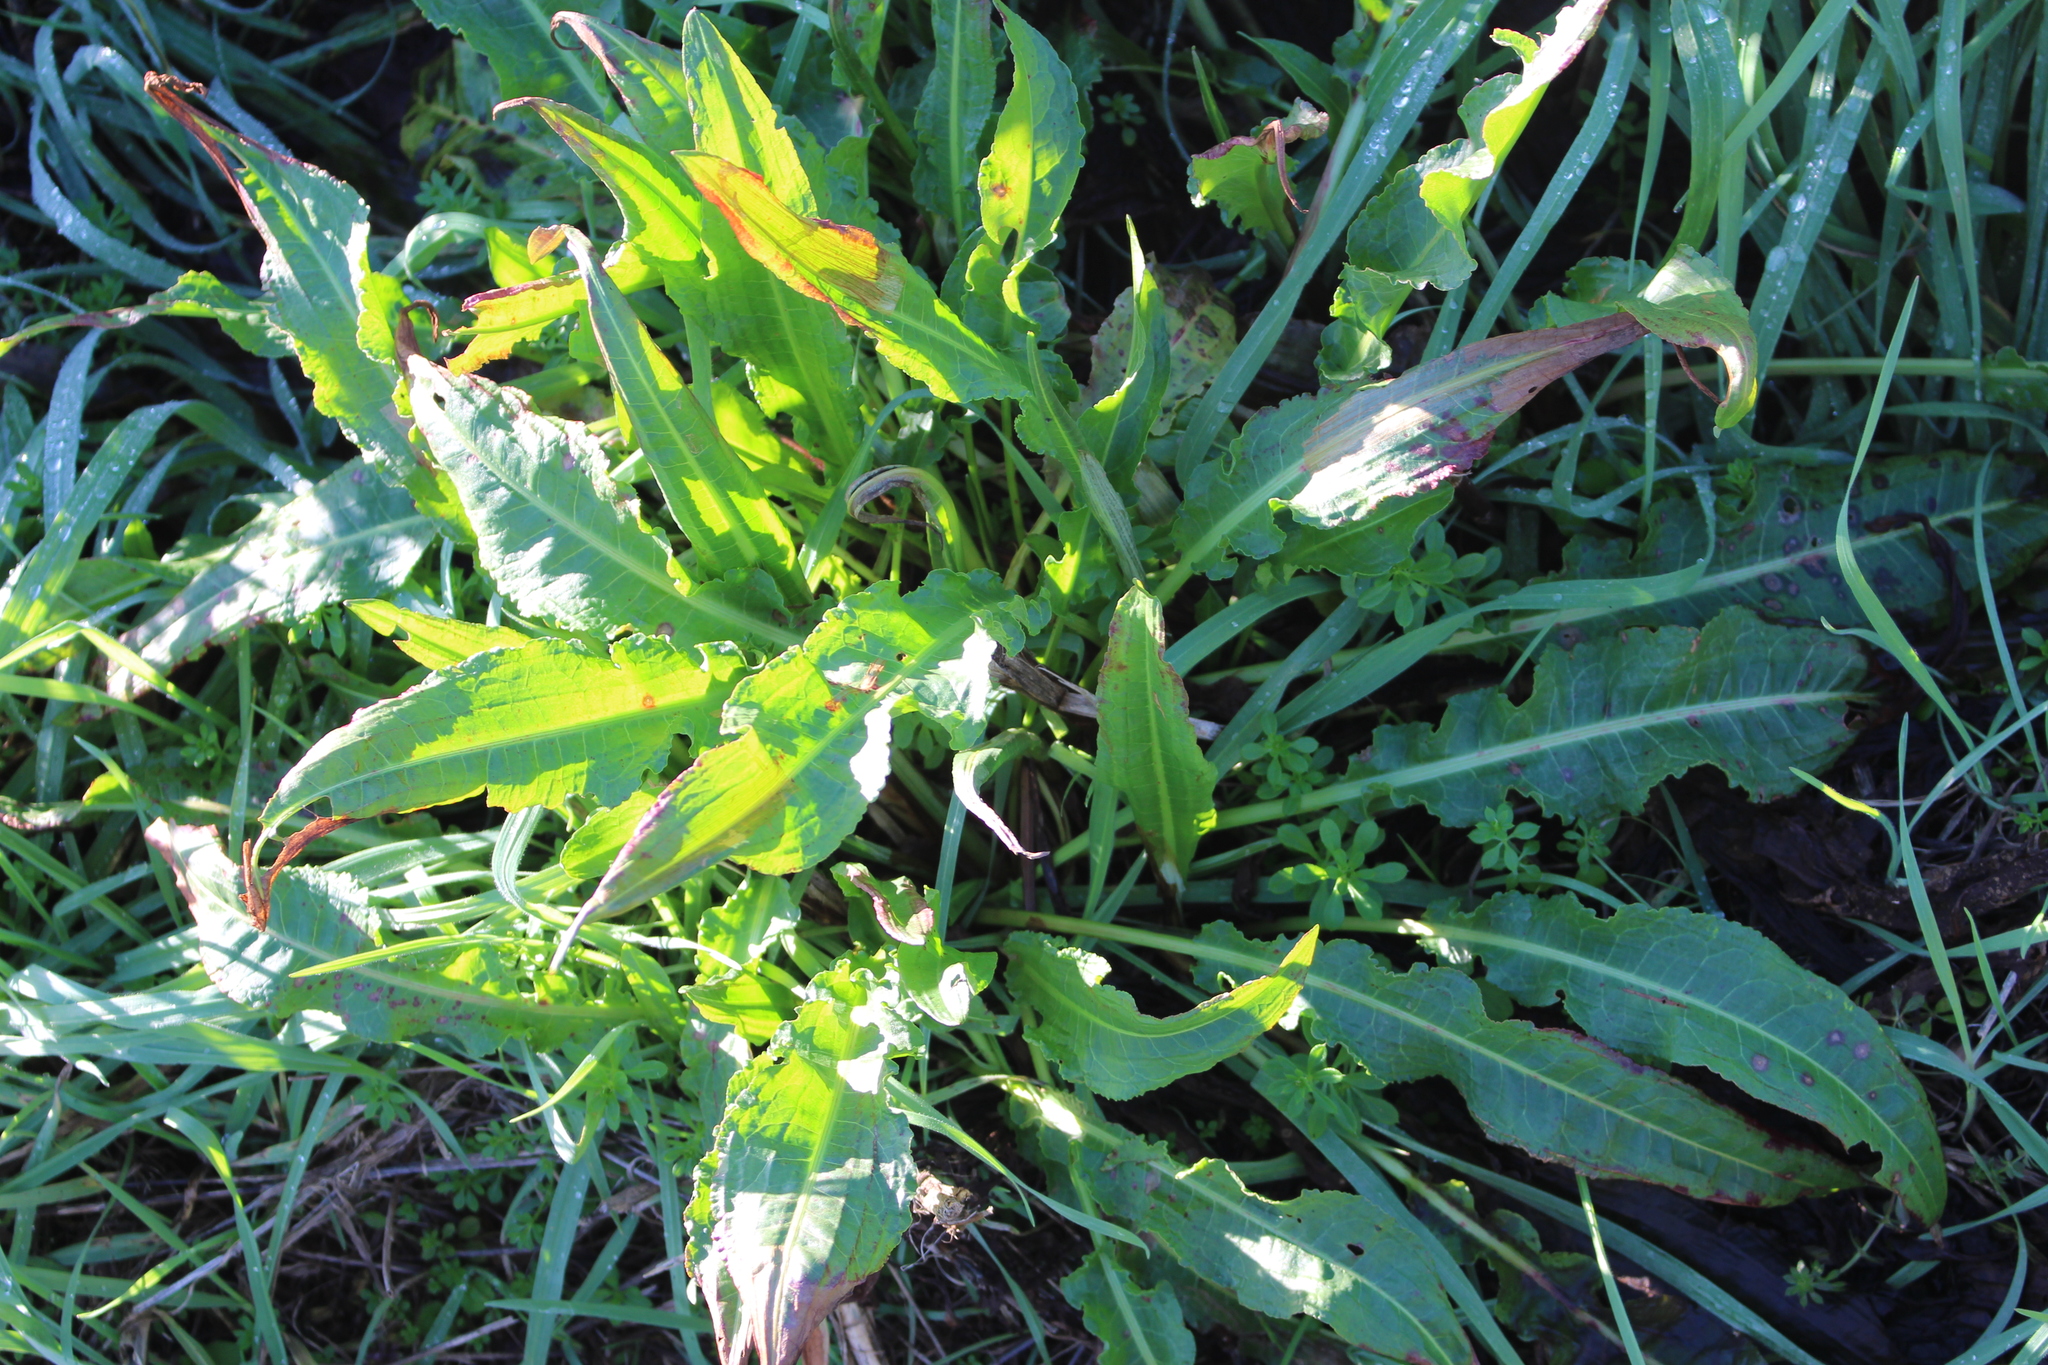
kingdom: Plantae
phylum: Tracheophyta
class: Magnoliopsida
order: Caryophyllales
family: Polygonaceae
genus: Rumex
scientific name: Rumex crispus
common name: Curled dock
